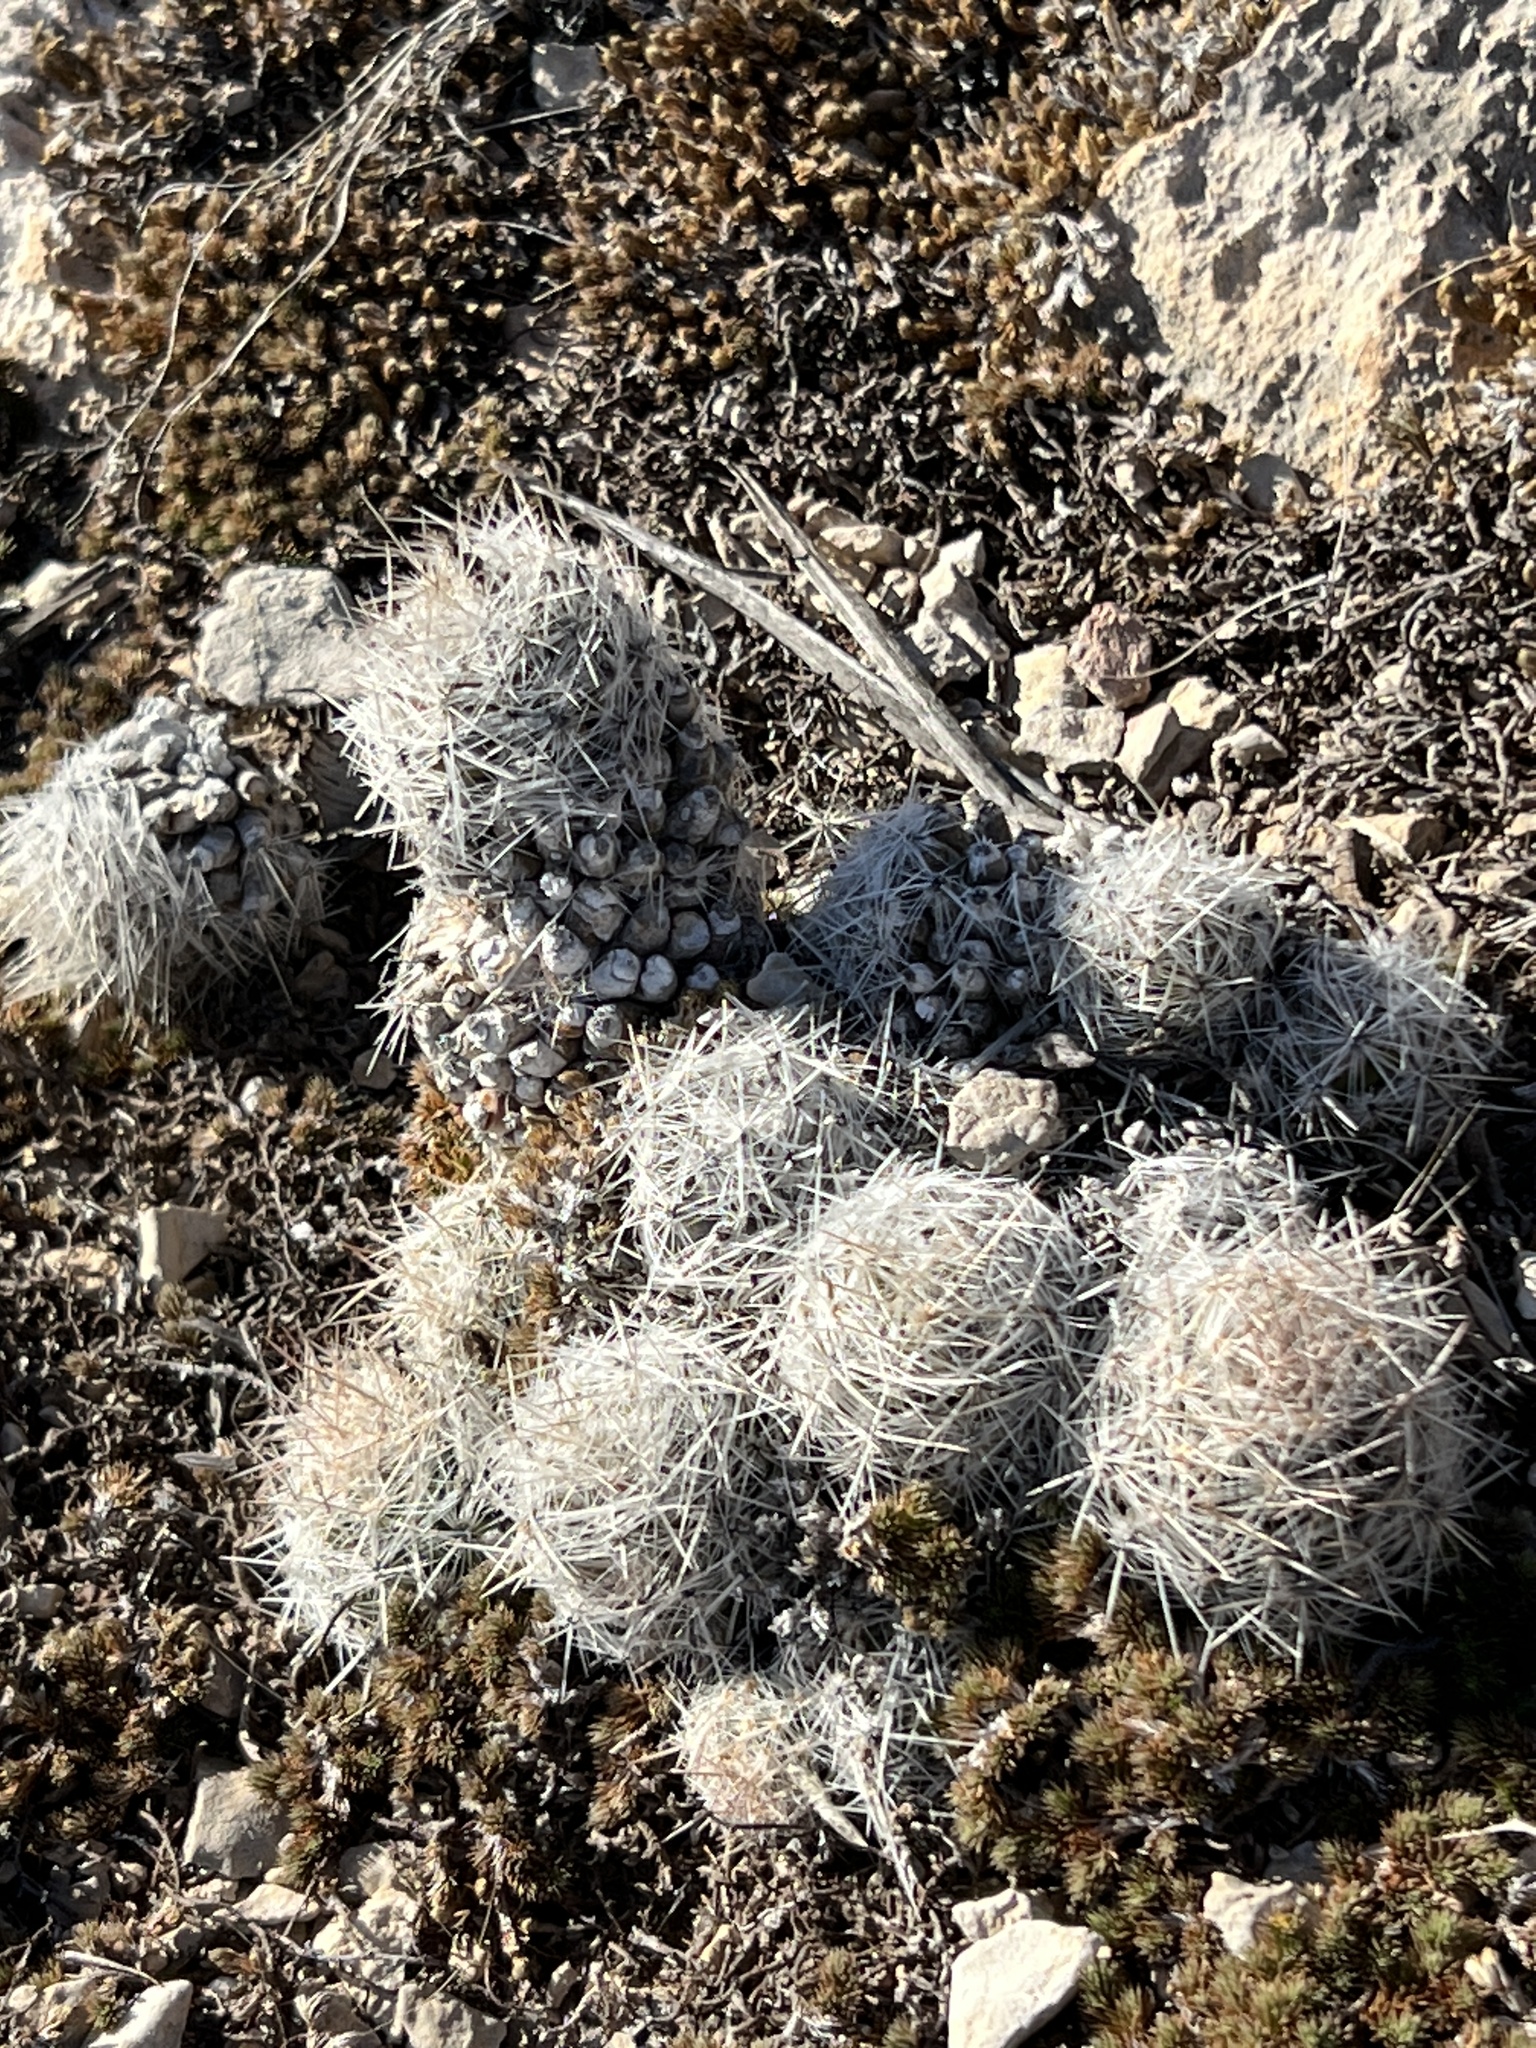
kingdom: Plantae
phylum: Tracheophyta
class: Magnoliopsida
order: Caryophyllales
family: Cactaceae
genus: Pelecyphora
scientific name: Pelecyphora tuberculosa
